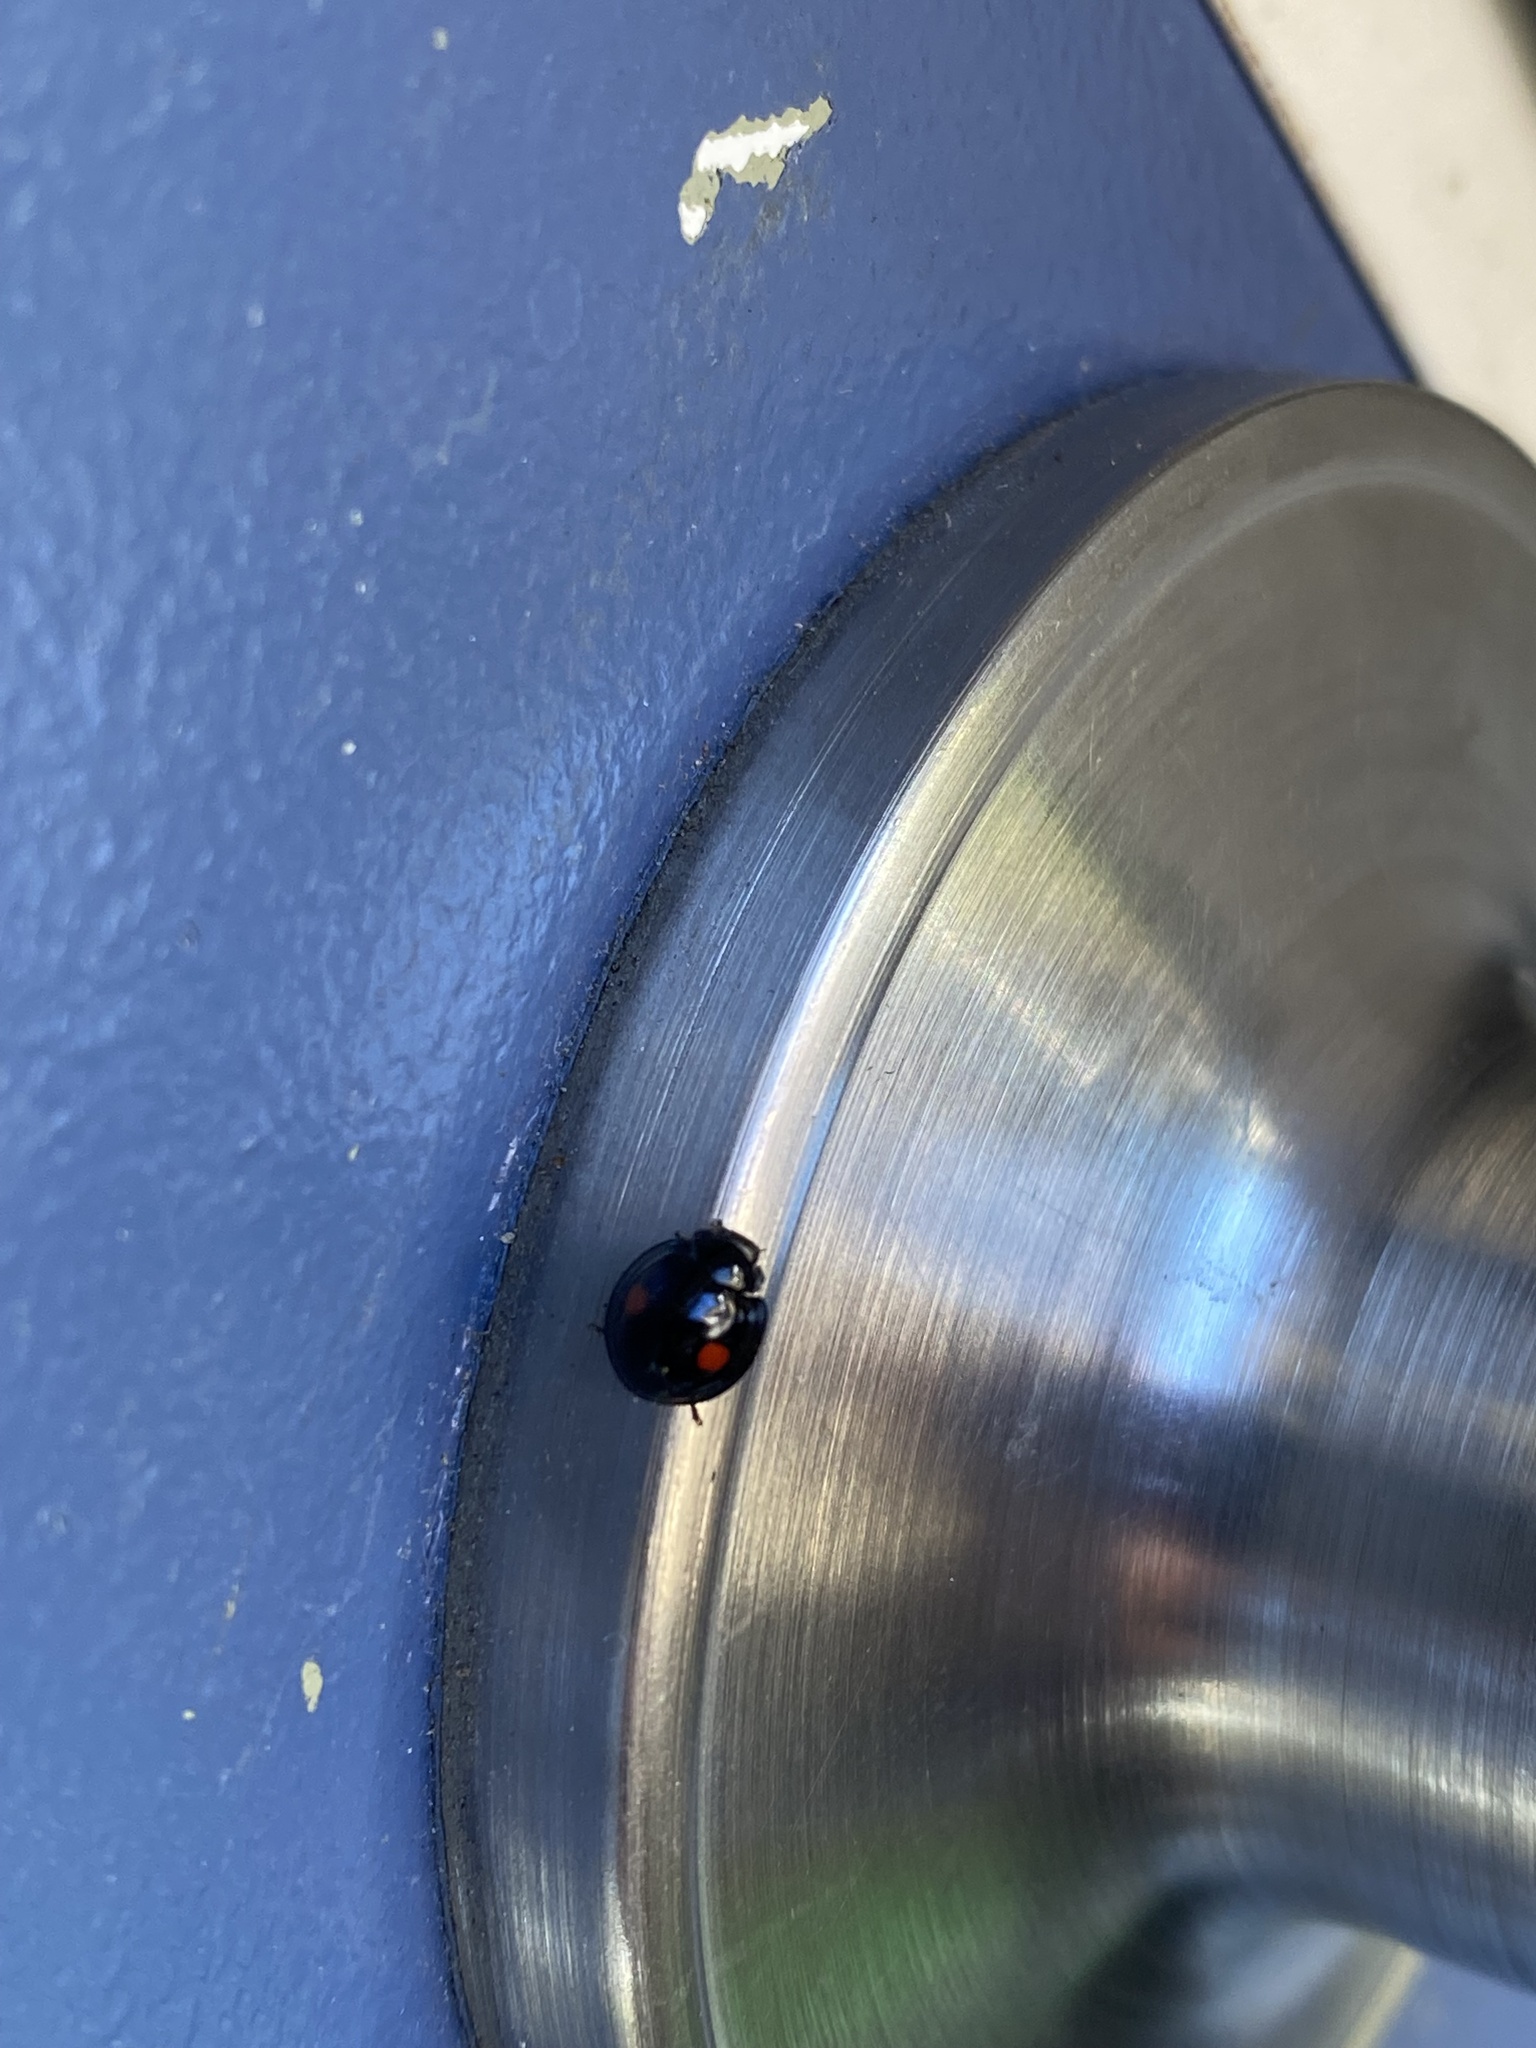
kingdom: Animalia
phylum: Arthropoda
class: Insecta
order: Coleoptera
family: Coccinellidae
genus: Chilocorus
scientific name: Chilocorus stigma
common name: Twicestabbed lady beetle
